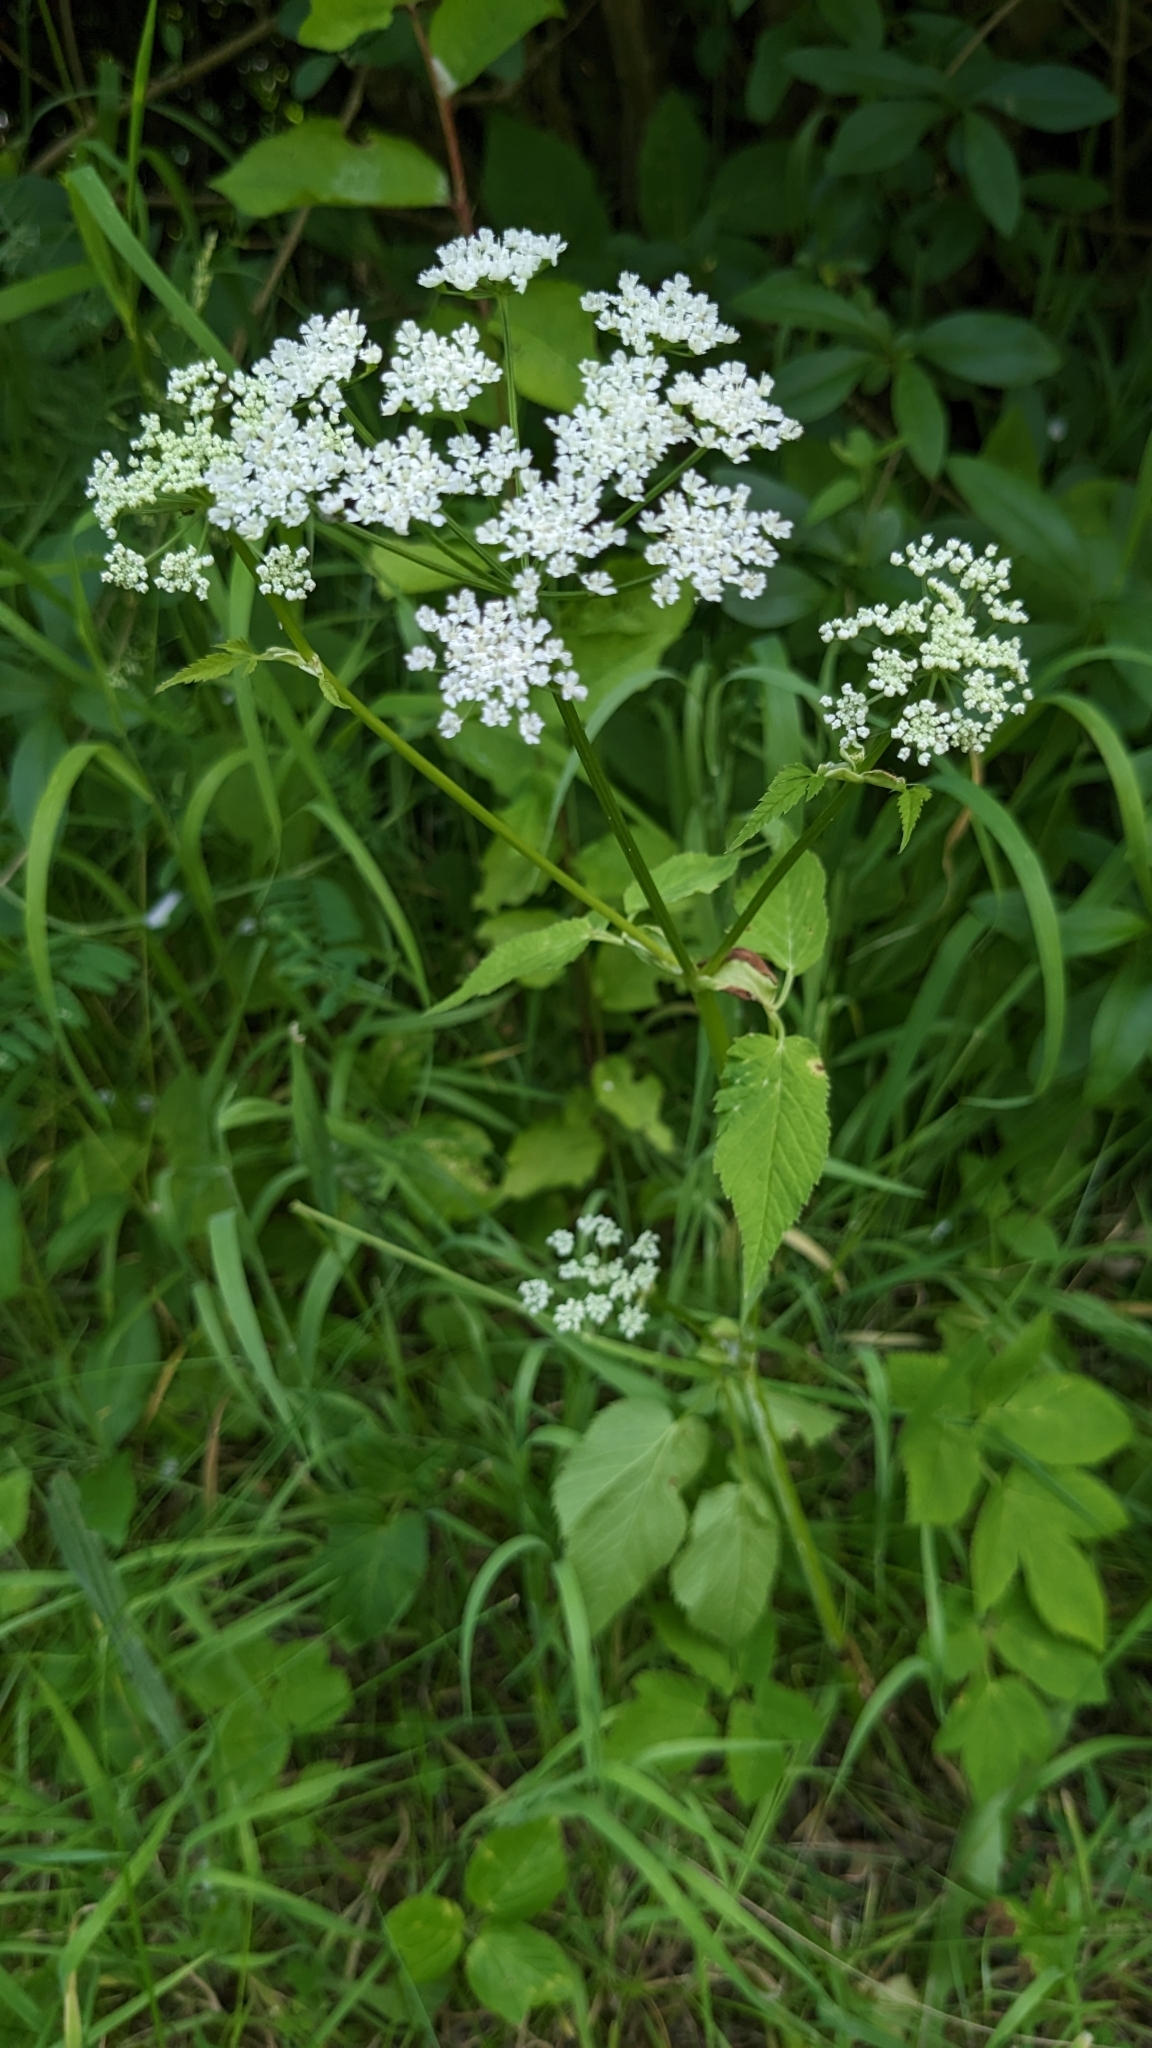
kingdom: Plantae
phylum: Tracheophyta
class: Magnoliopsida
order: Apiales
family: Apiaceae
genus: Aegopodium
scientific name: Aegopodium podagraria
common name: Ground-elder
